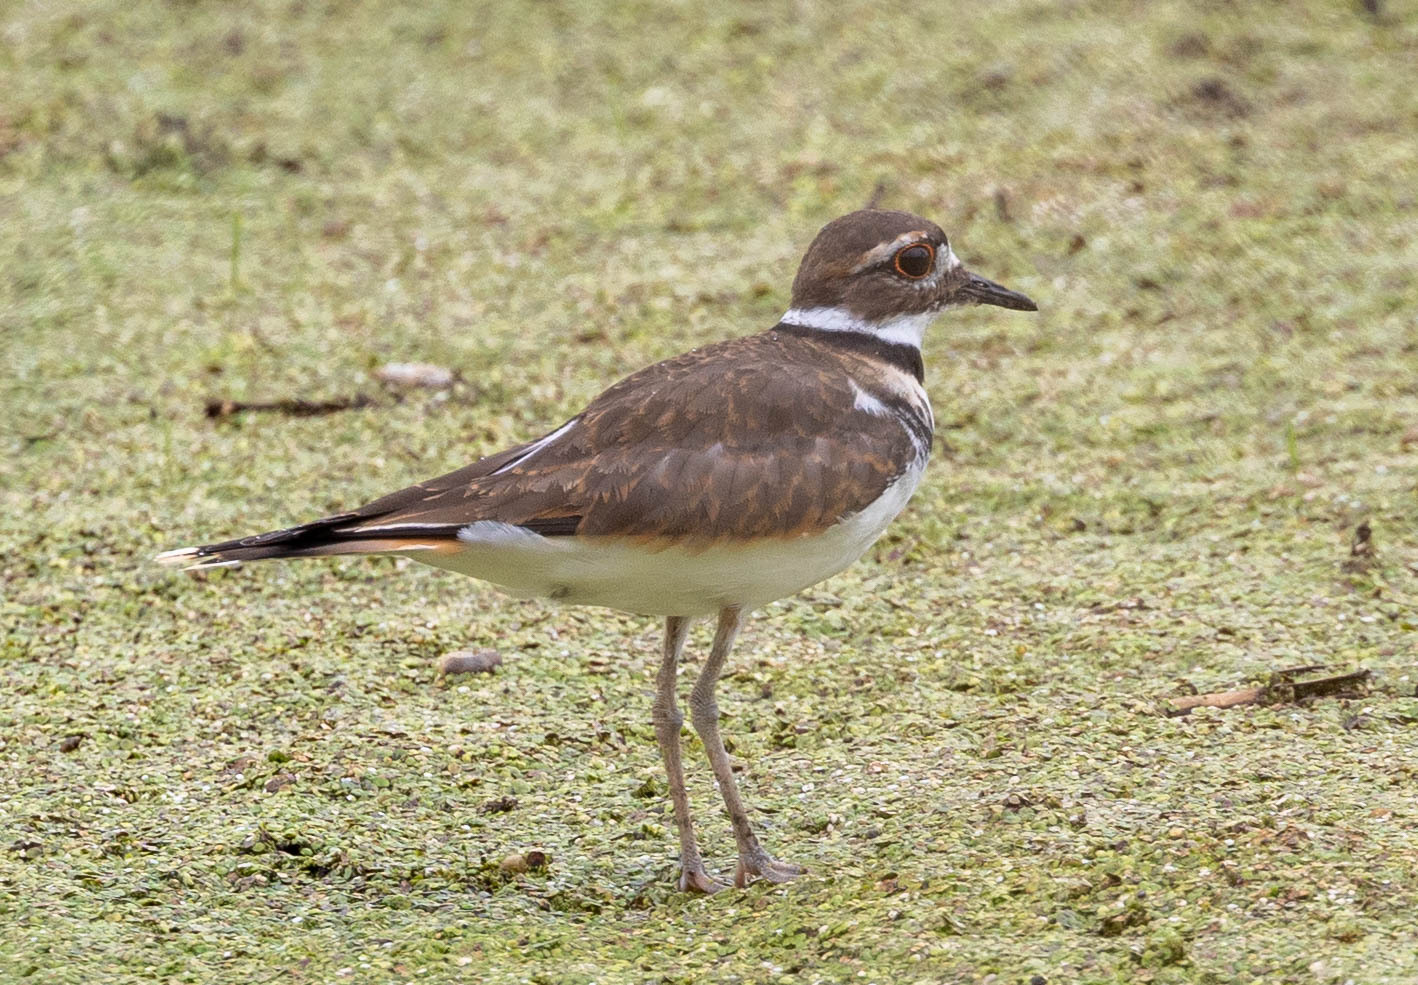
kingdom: Animalia
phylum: Chordata
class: Aves
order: Charadriiformes
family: Charadriidae
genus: Charadrius
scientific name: Charadrius vociferus
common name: Killdeer
